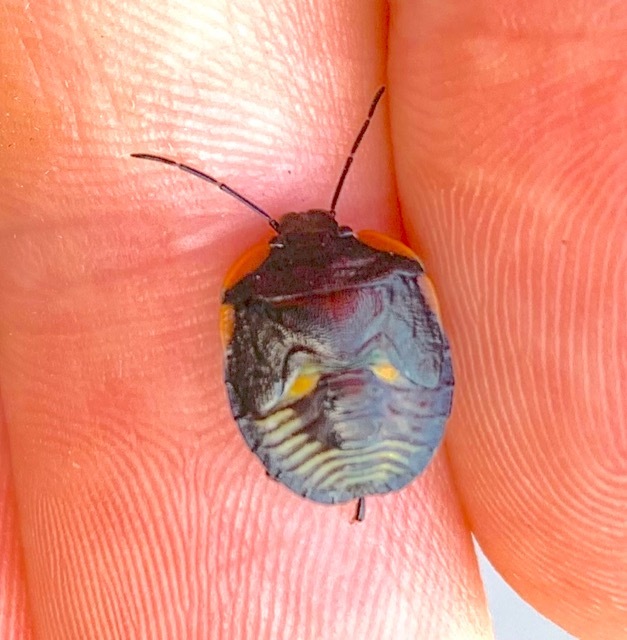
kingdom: Animalia
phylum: Arthropoda
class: Insecta
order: Hemiptera
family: Pentatomidae
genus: Chinavia
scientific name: Chinavia hilaris
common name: Green stink bug
